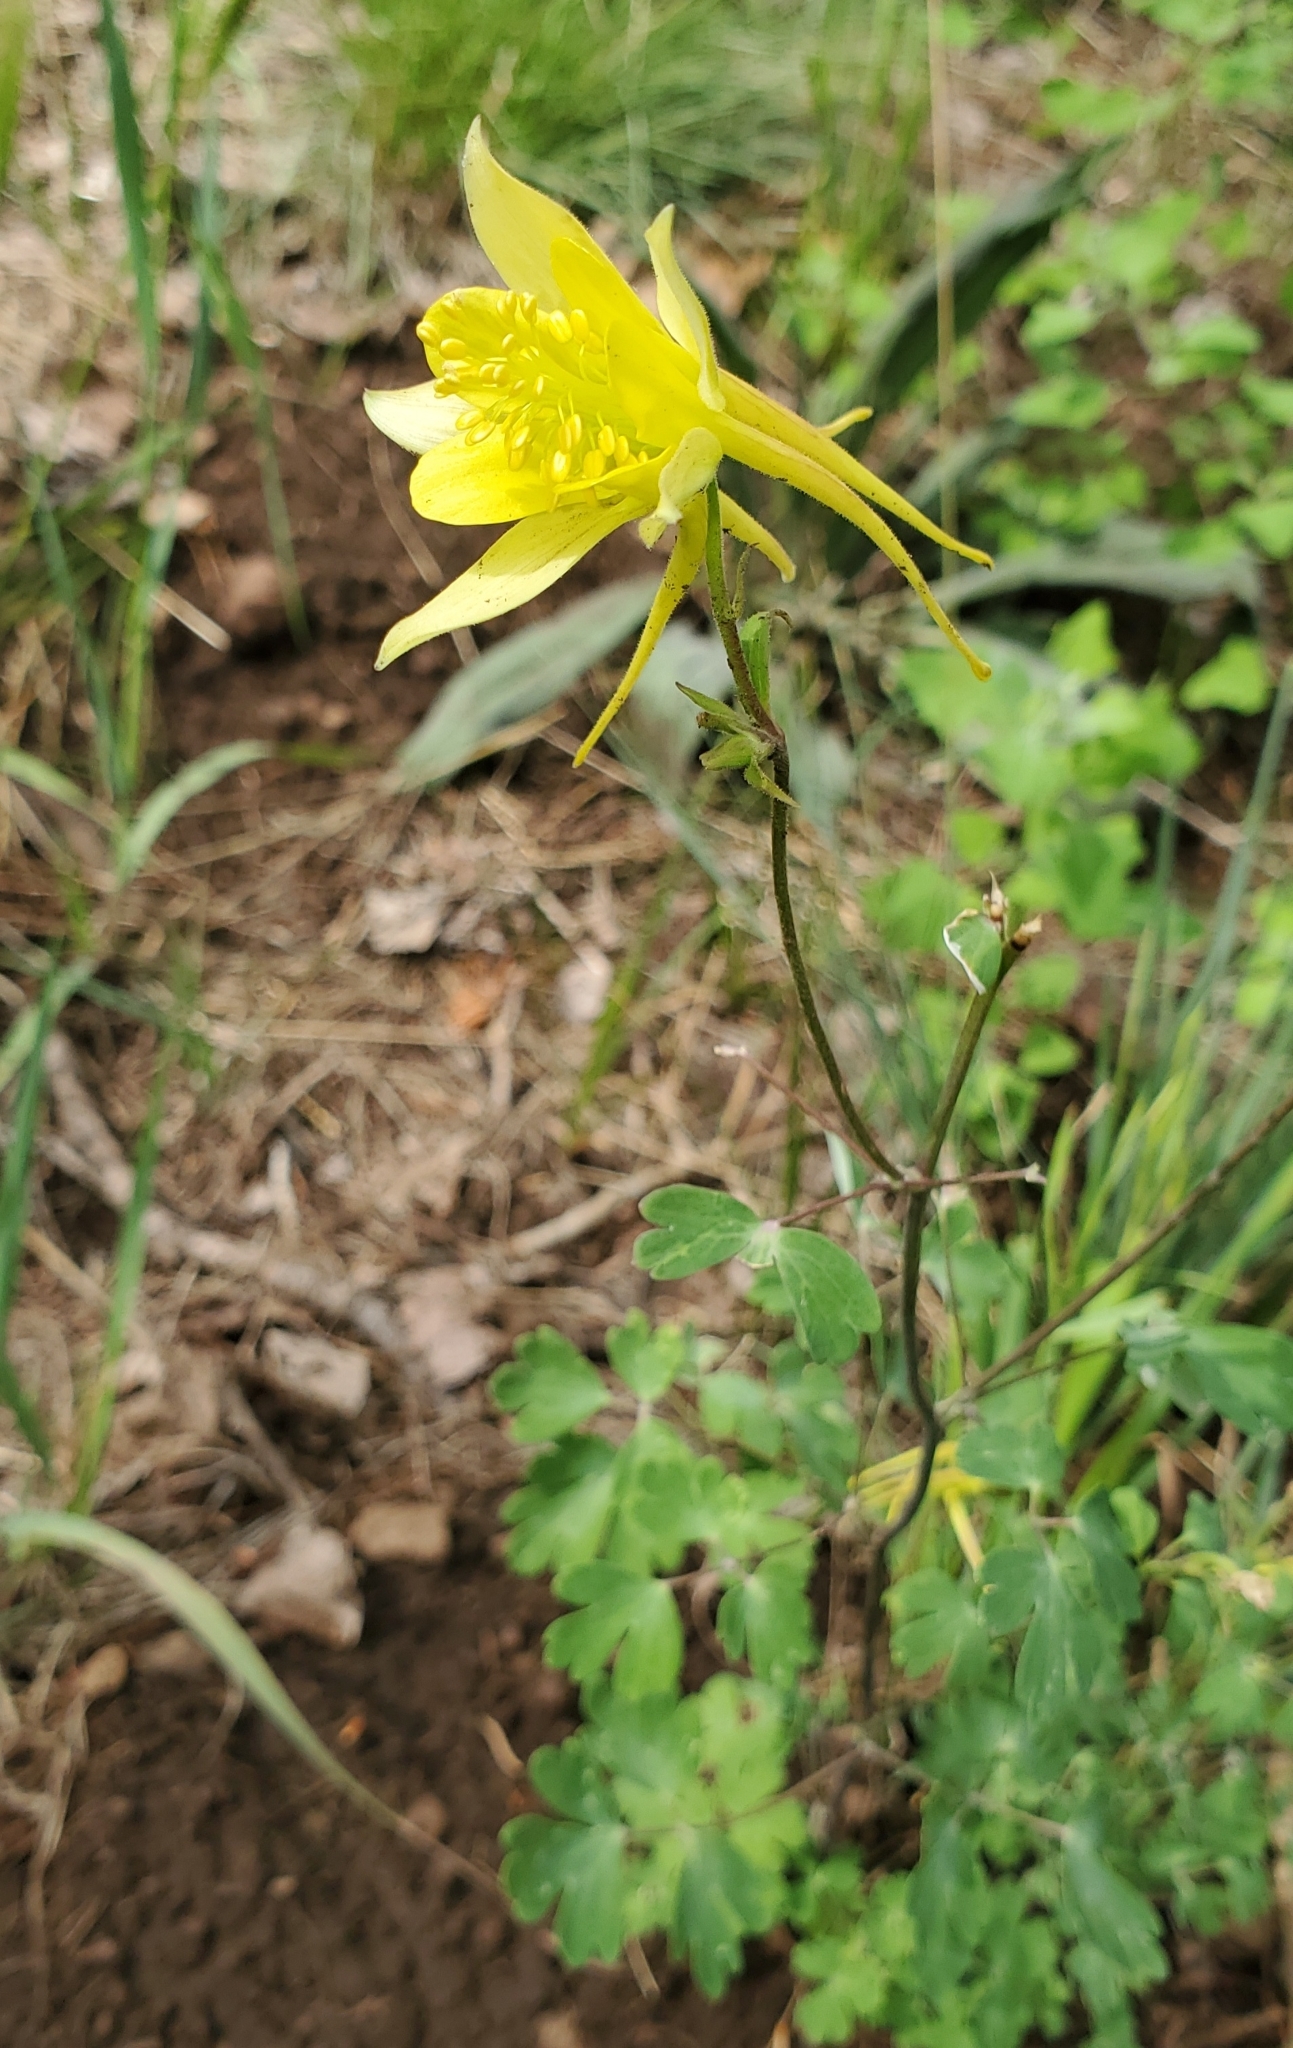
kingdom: Plantae
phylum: Tracheophyta
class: Magnoliopsida
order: Ranunculales
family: Ranunculaceae
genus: Aquilegia
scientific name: Aquilegia chrysantha
